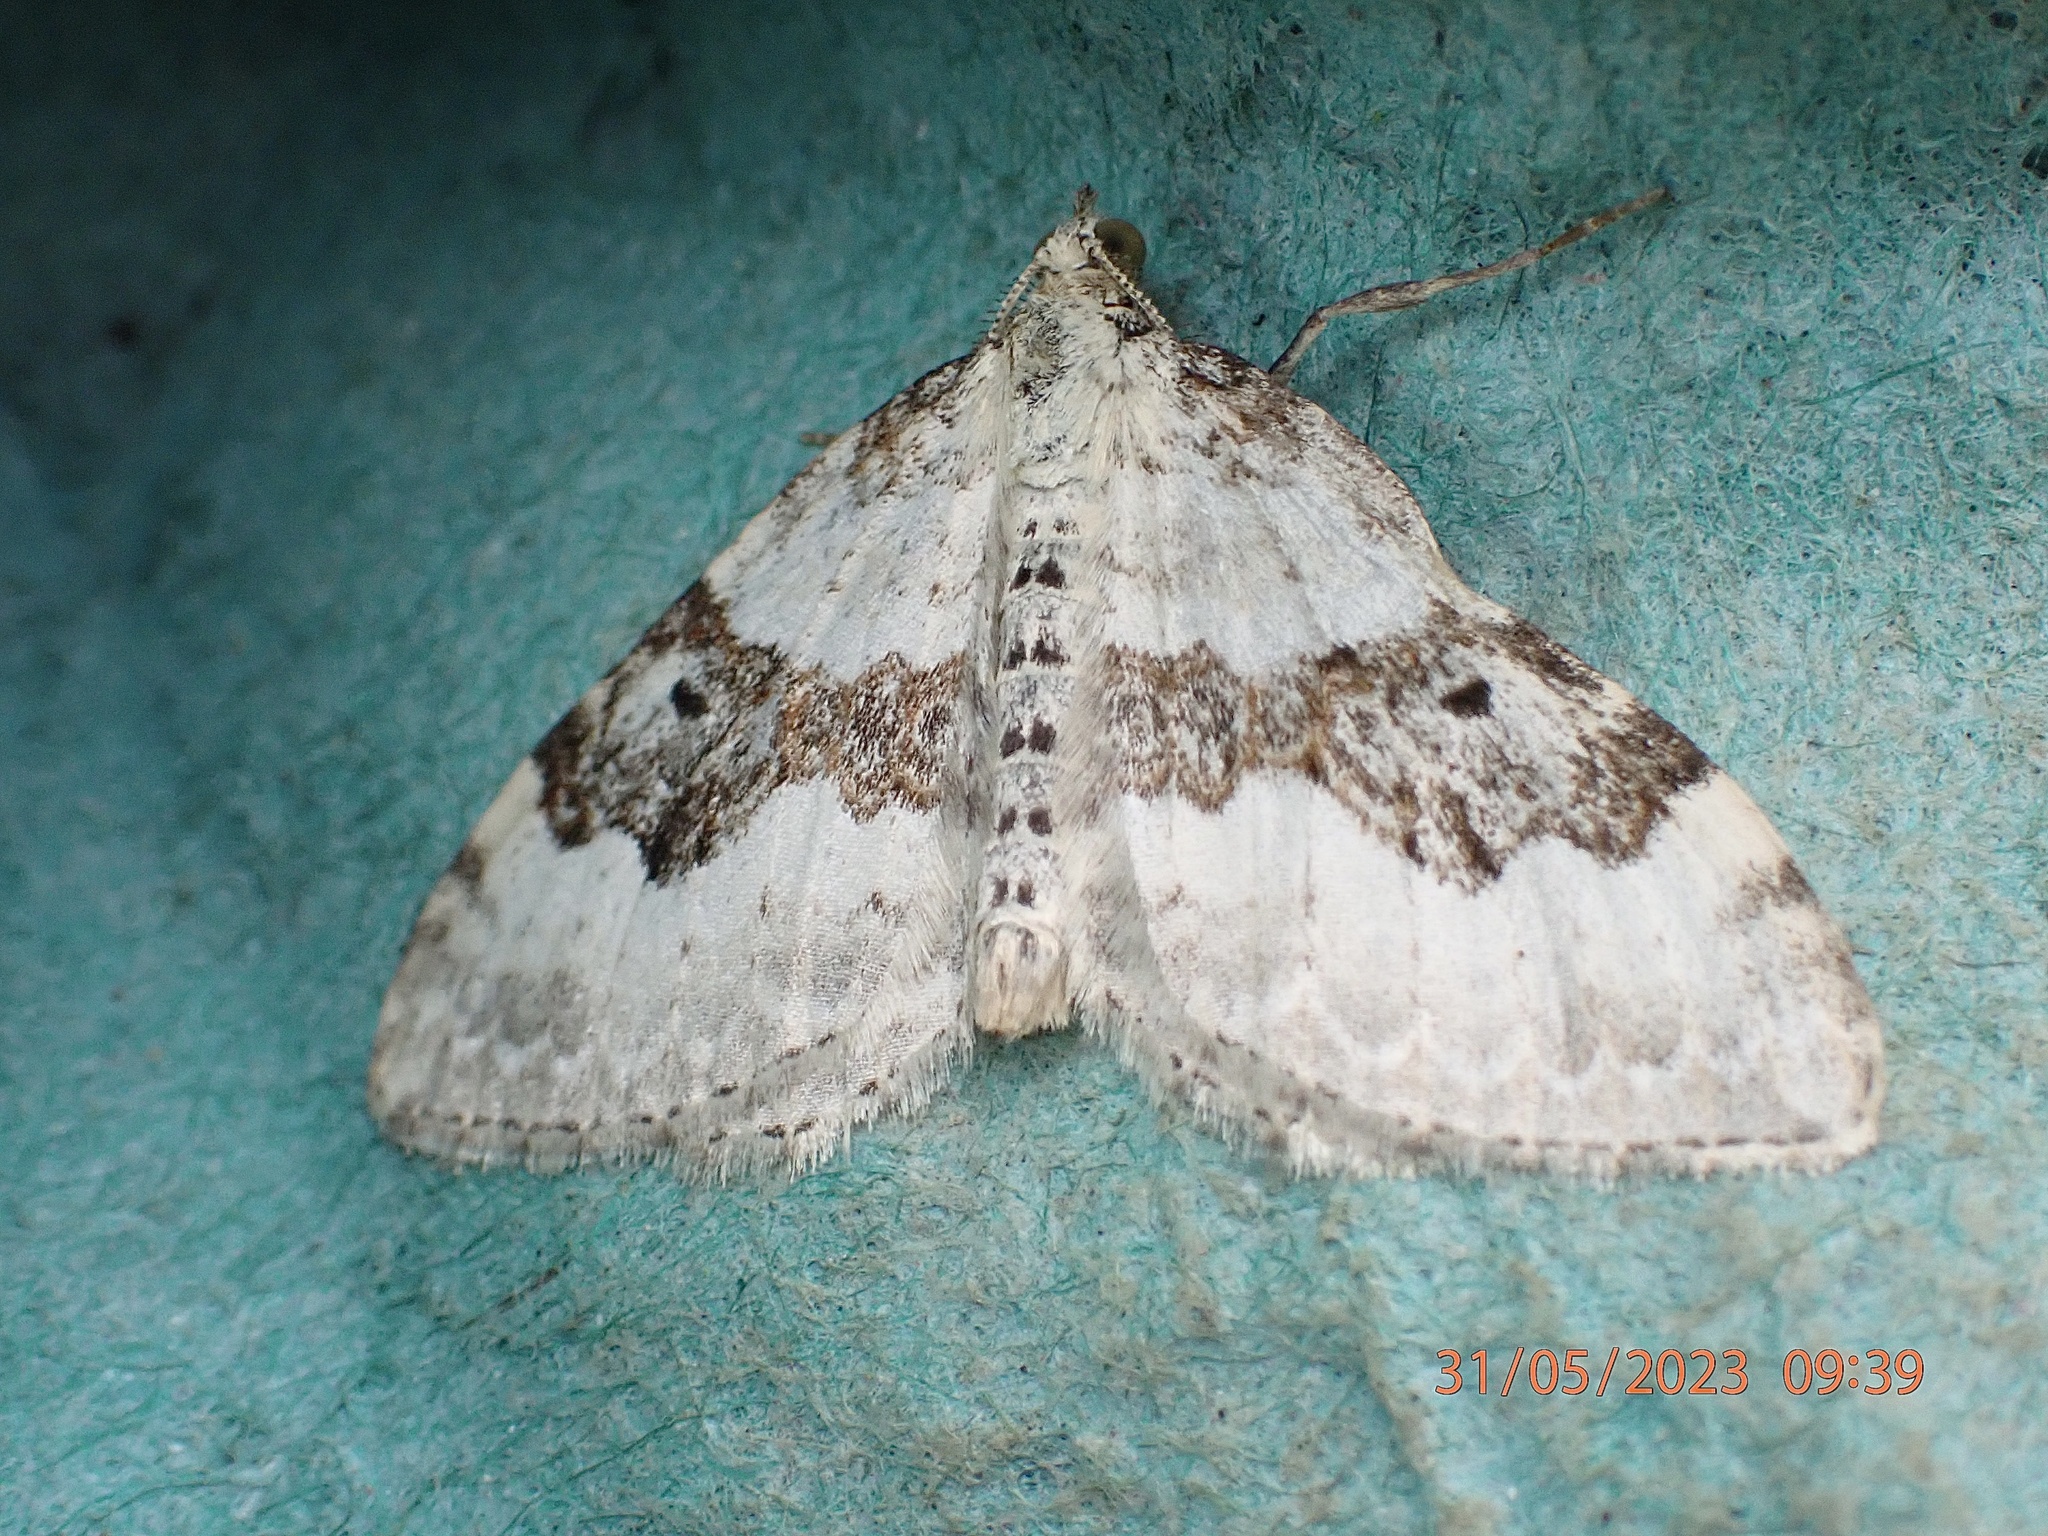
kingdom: Animalia
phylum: Arthropoda
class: Insecta
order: Lepidoptera
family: Geometridae
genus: Xanthorhoe
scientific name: Xanthorhoe montanata
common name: Silver-ground carpet
